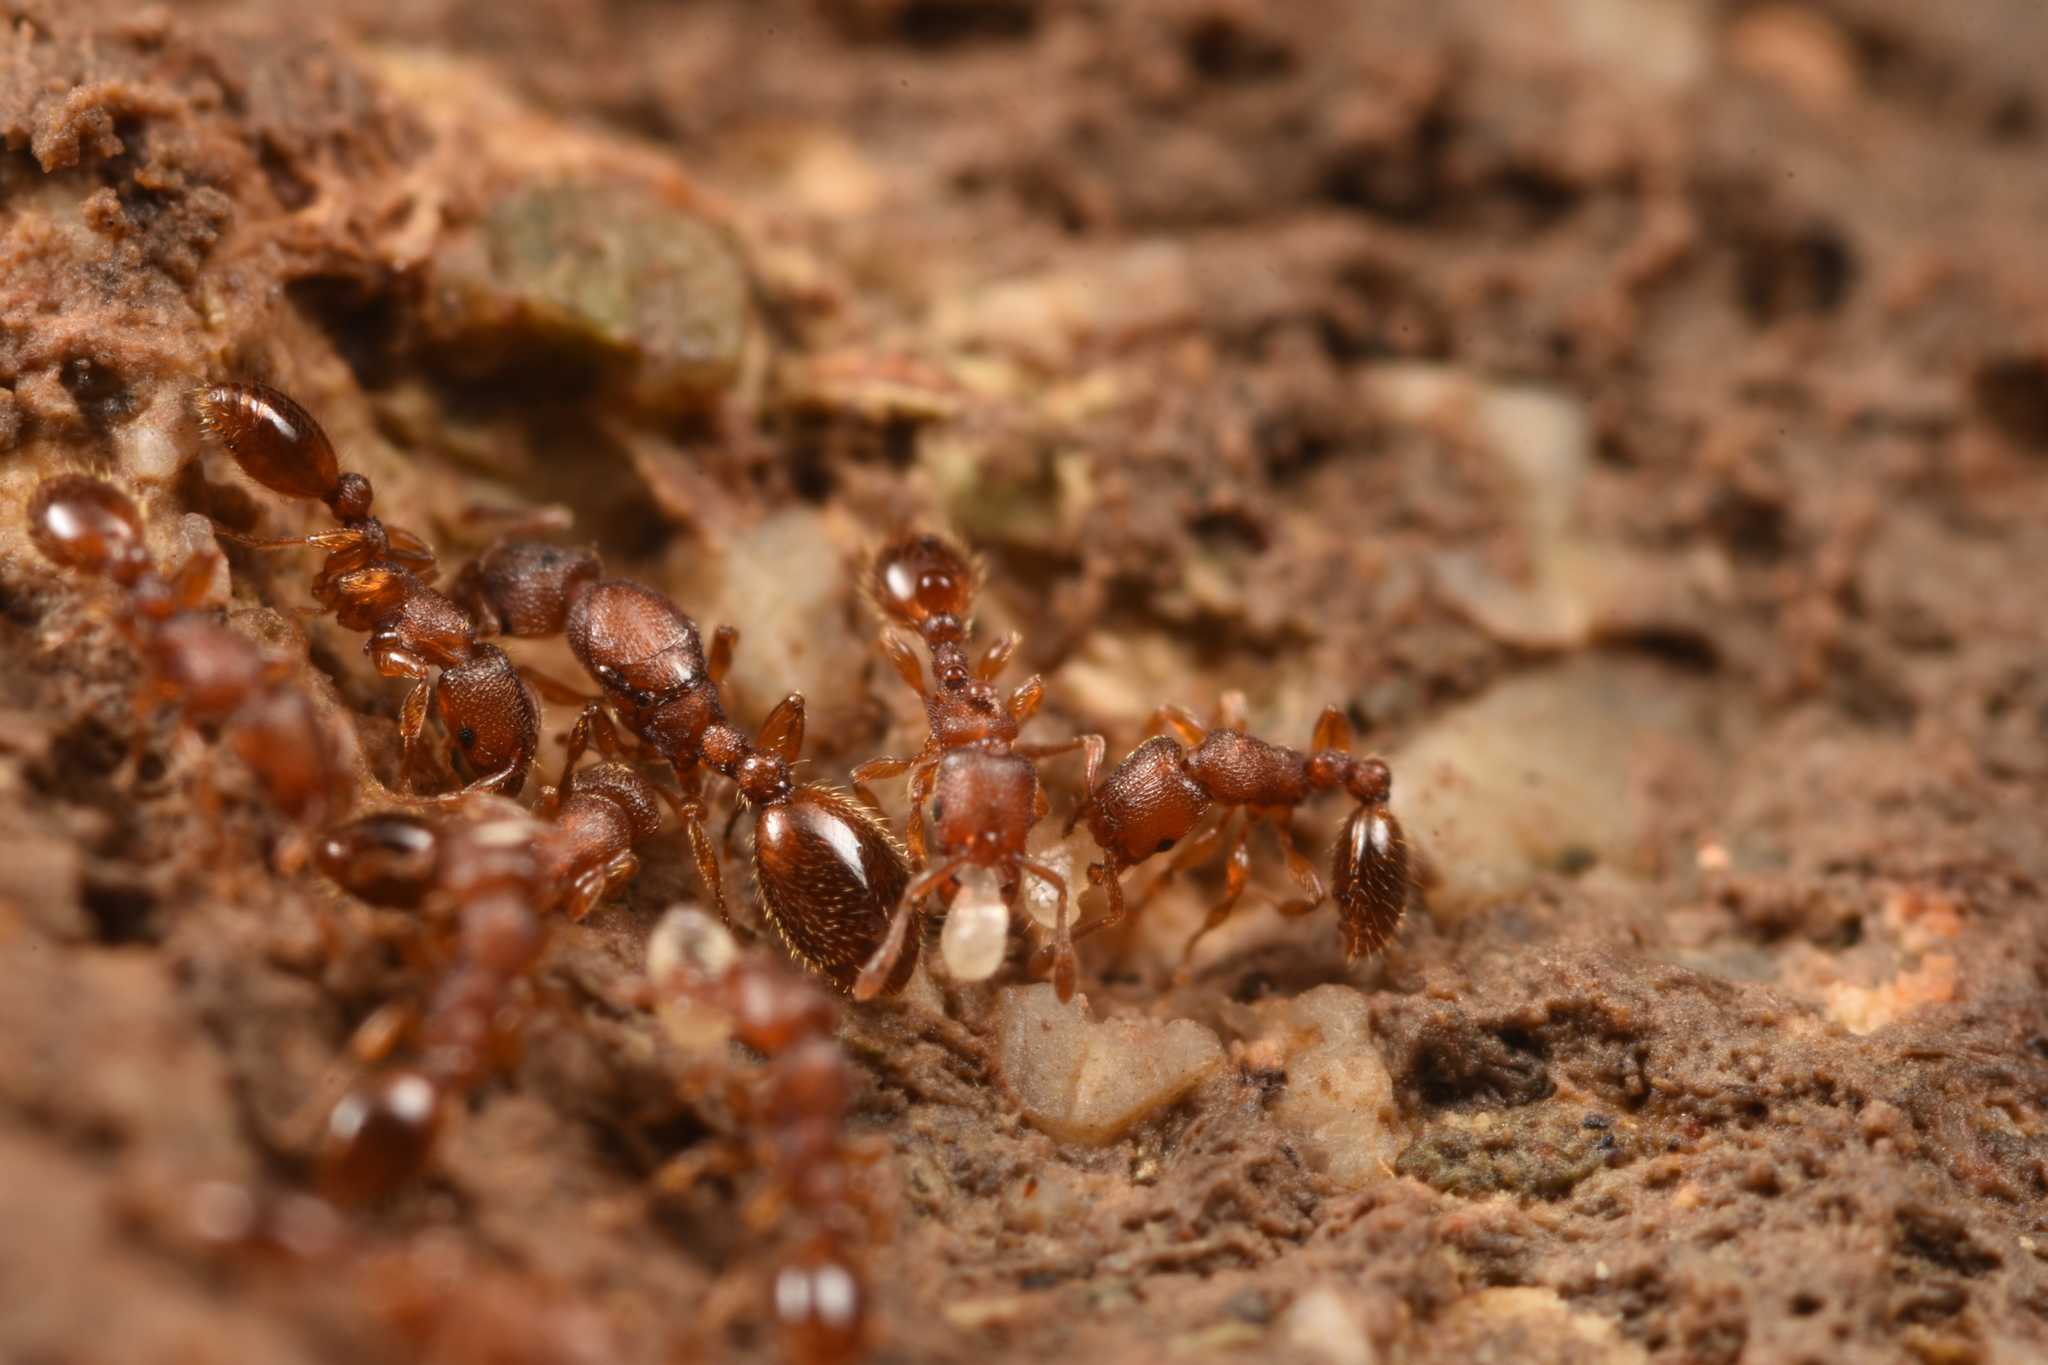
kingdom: Animalia
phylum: Arthropoda
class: Insecta
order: Hymenoptera
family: Formicidae
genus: Vollenhovia
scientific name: Vollenhovia emeryi
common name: Ant
